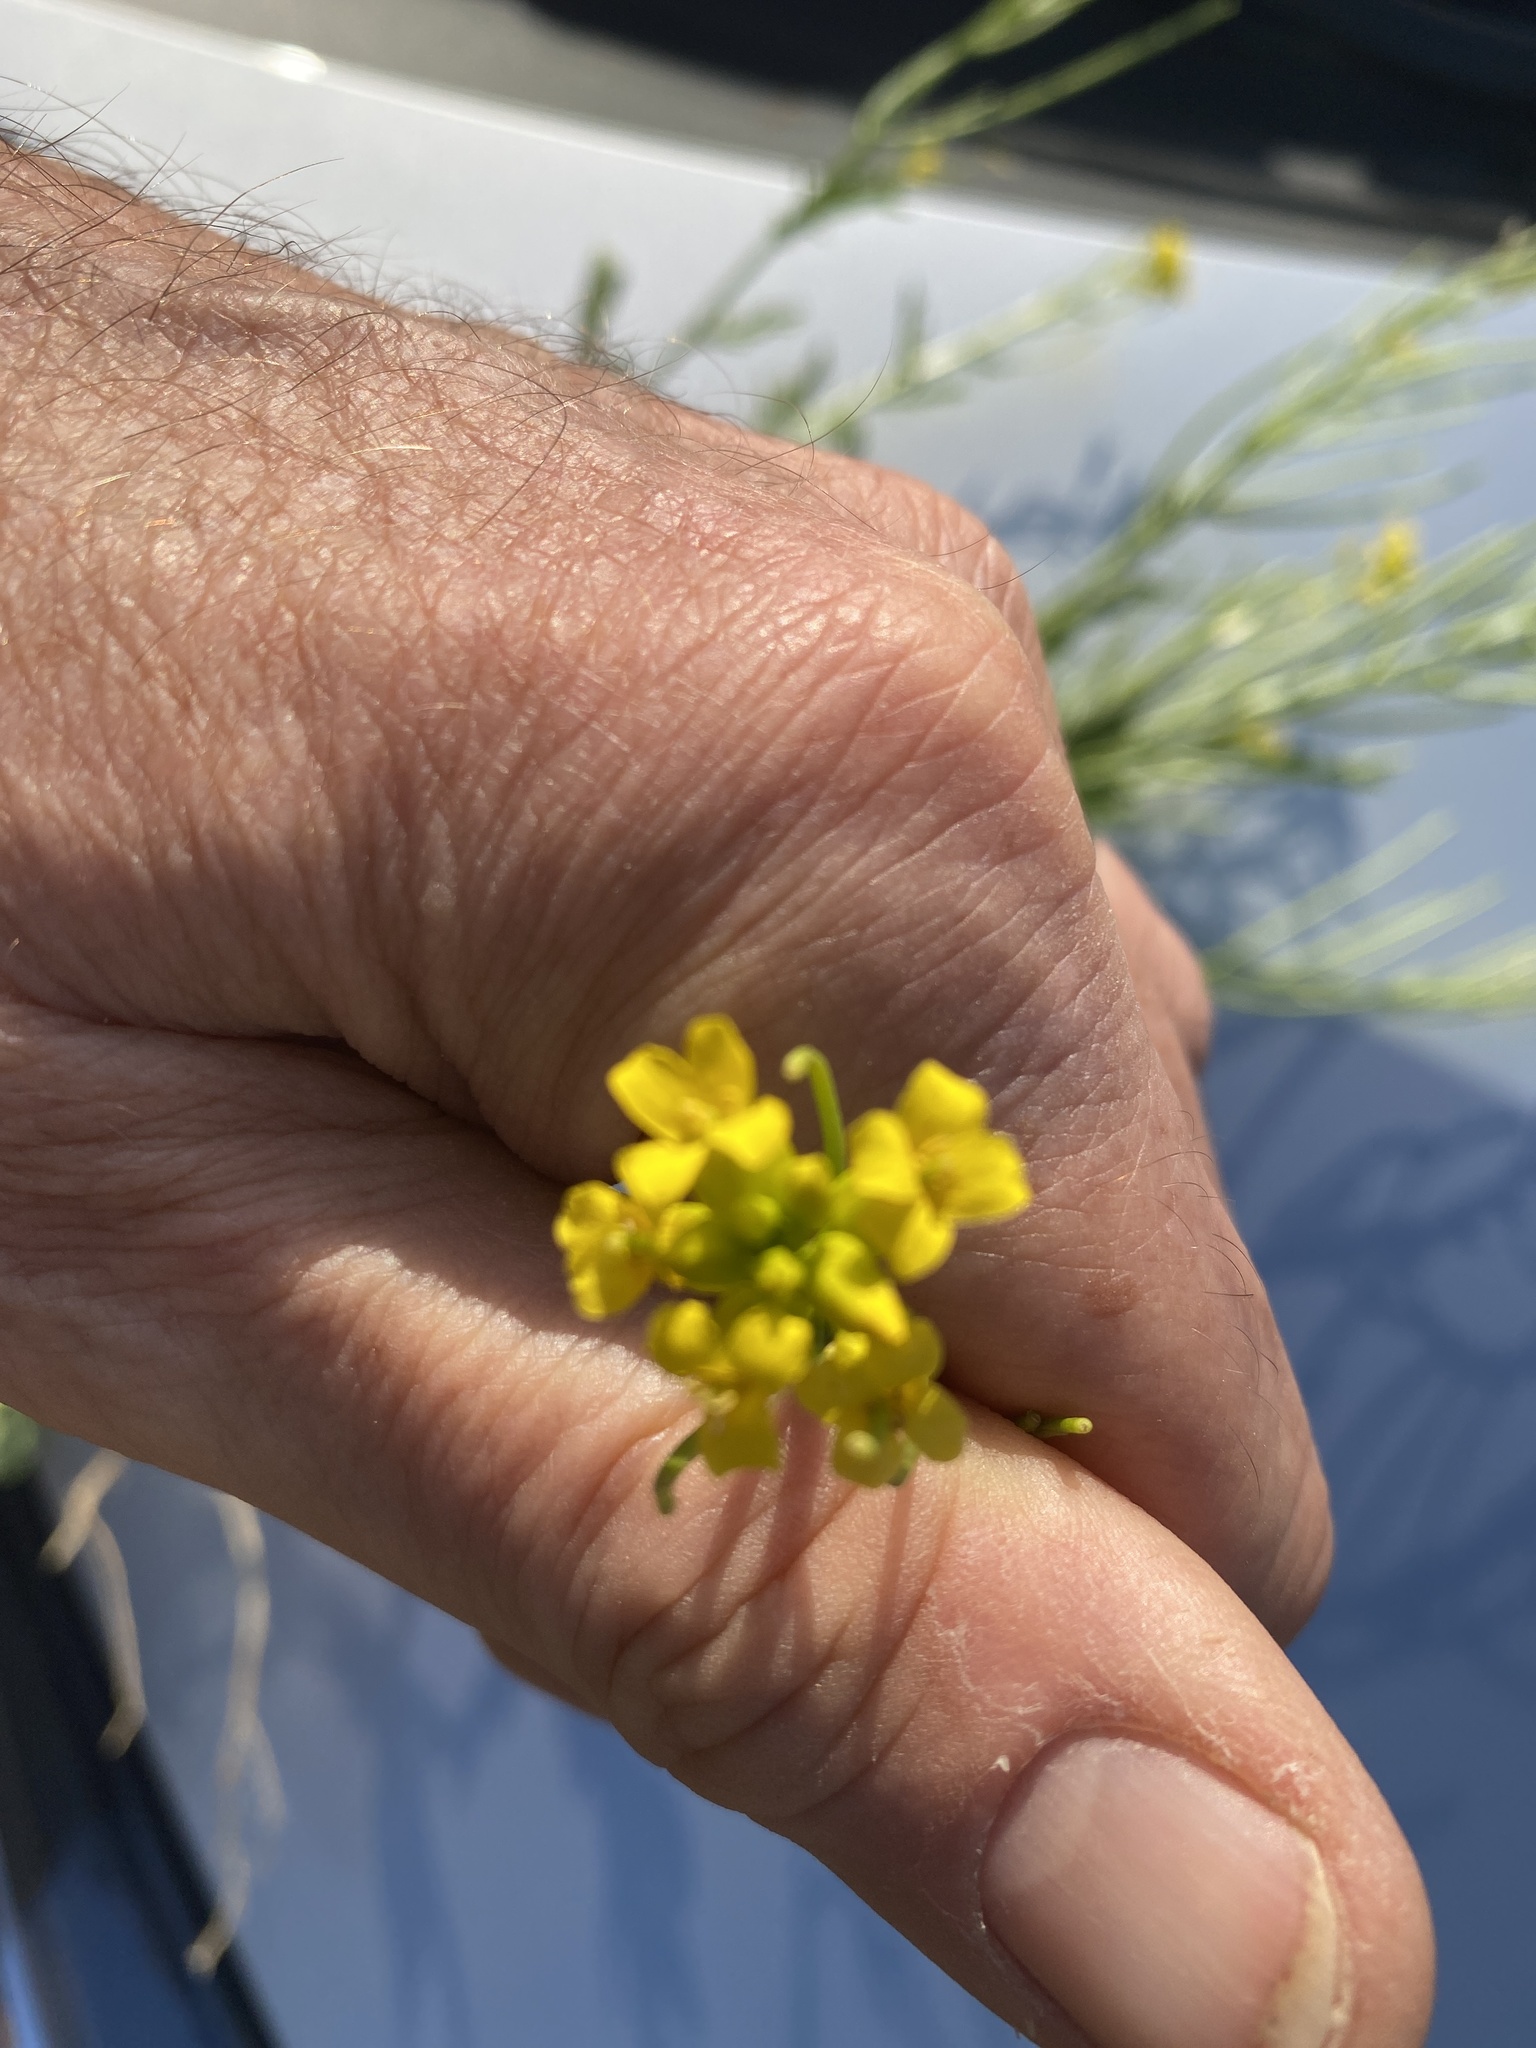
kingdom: Plantae
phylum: Tracheophyta
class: Magnoliopsida
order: Brassicales
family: Brassicaceae
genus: Barbarea
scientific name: Barbarea vulgaris
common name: Cressy-greens
